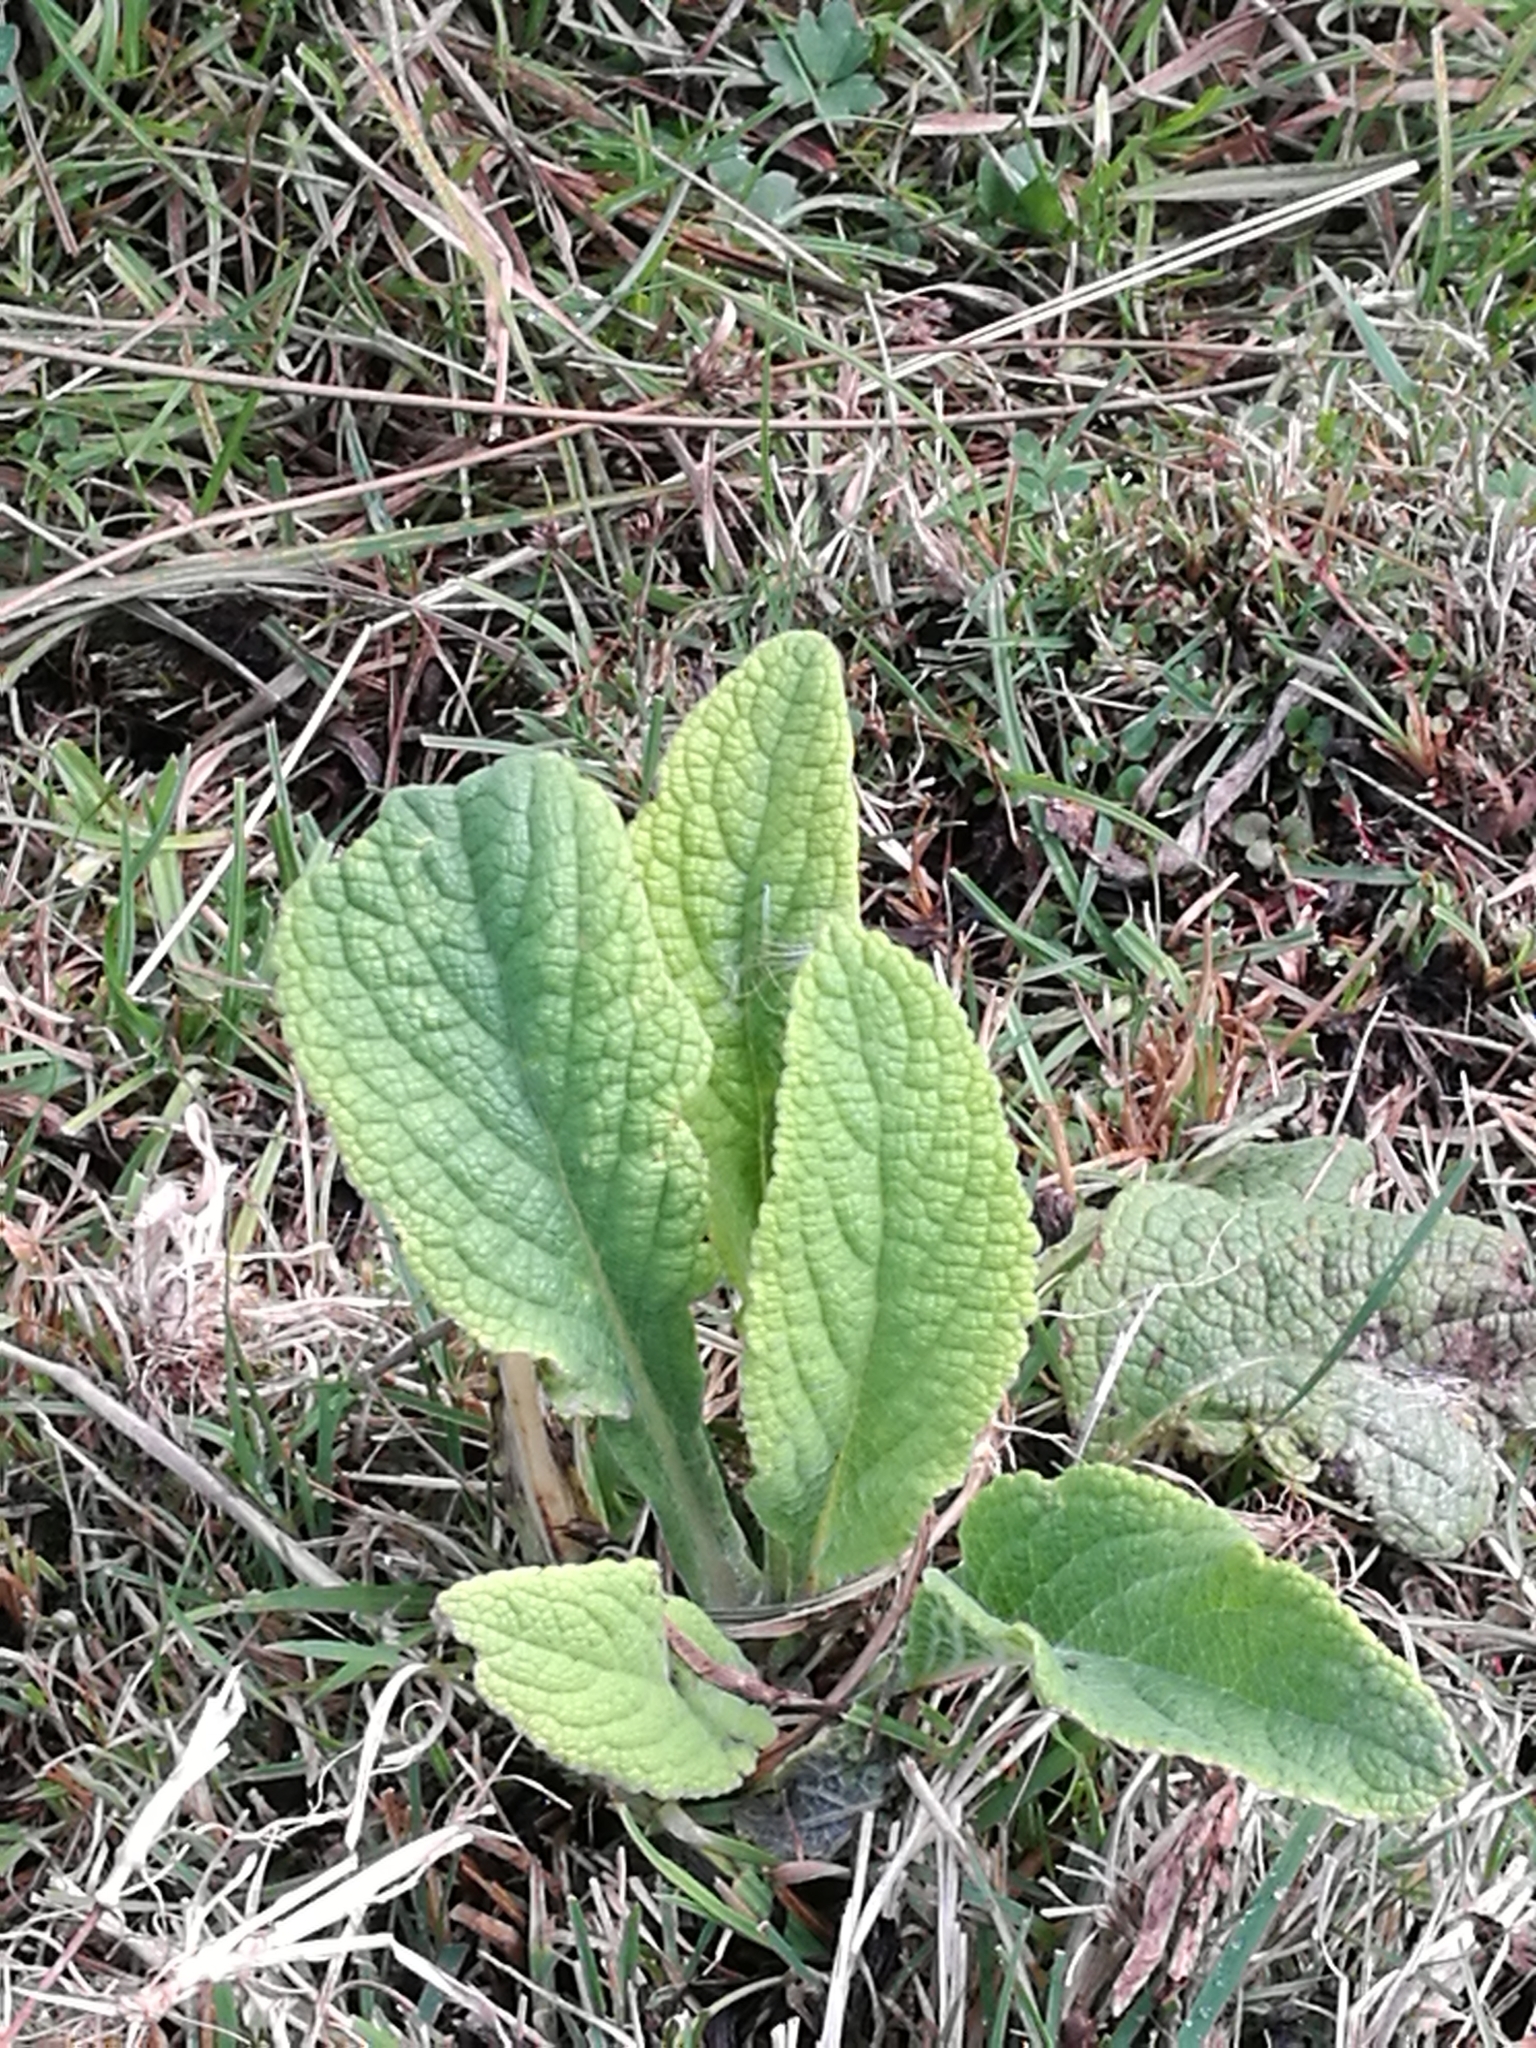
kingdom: Plantae
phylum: Tracheophyta
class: Magnoliopsida
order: Lamiales
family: Plantaginaceae
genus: Digitalis
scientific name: Digitalis purpurea
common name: Foxglove
